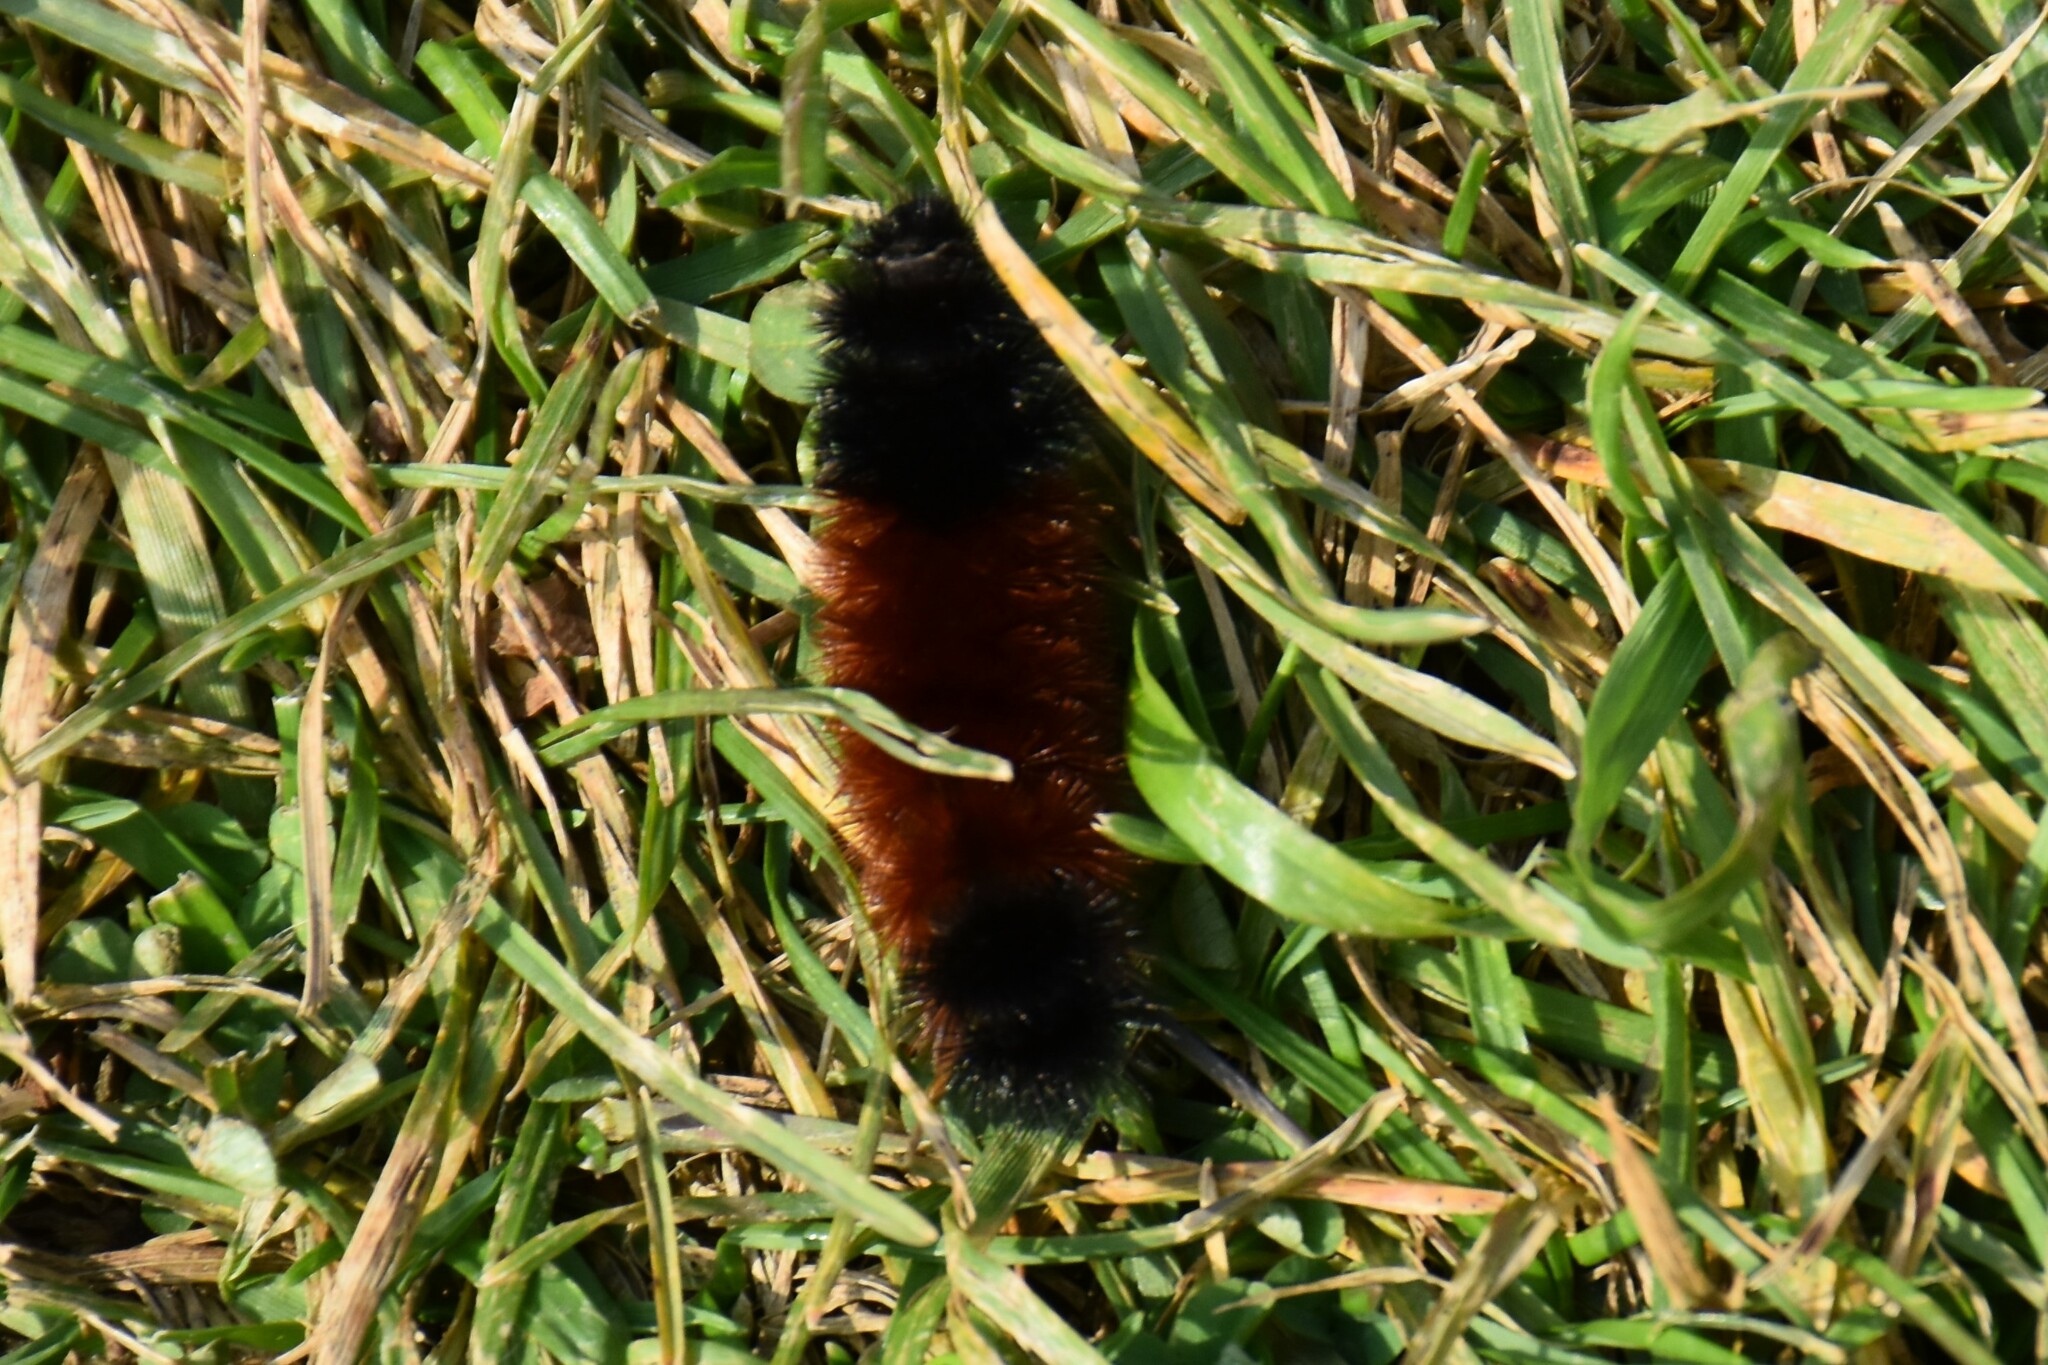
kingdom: Animalia
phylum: Arthropoda
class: Insecta
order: Lepidoptera
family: Erebidae
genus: Pyrrharctia
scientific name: Pyrrharctia isabella
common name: Isabella tiger moth
